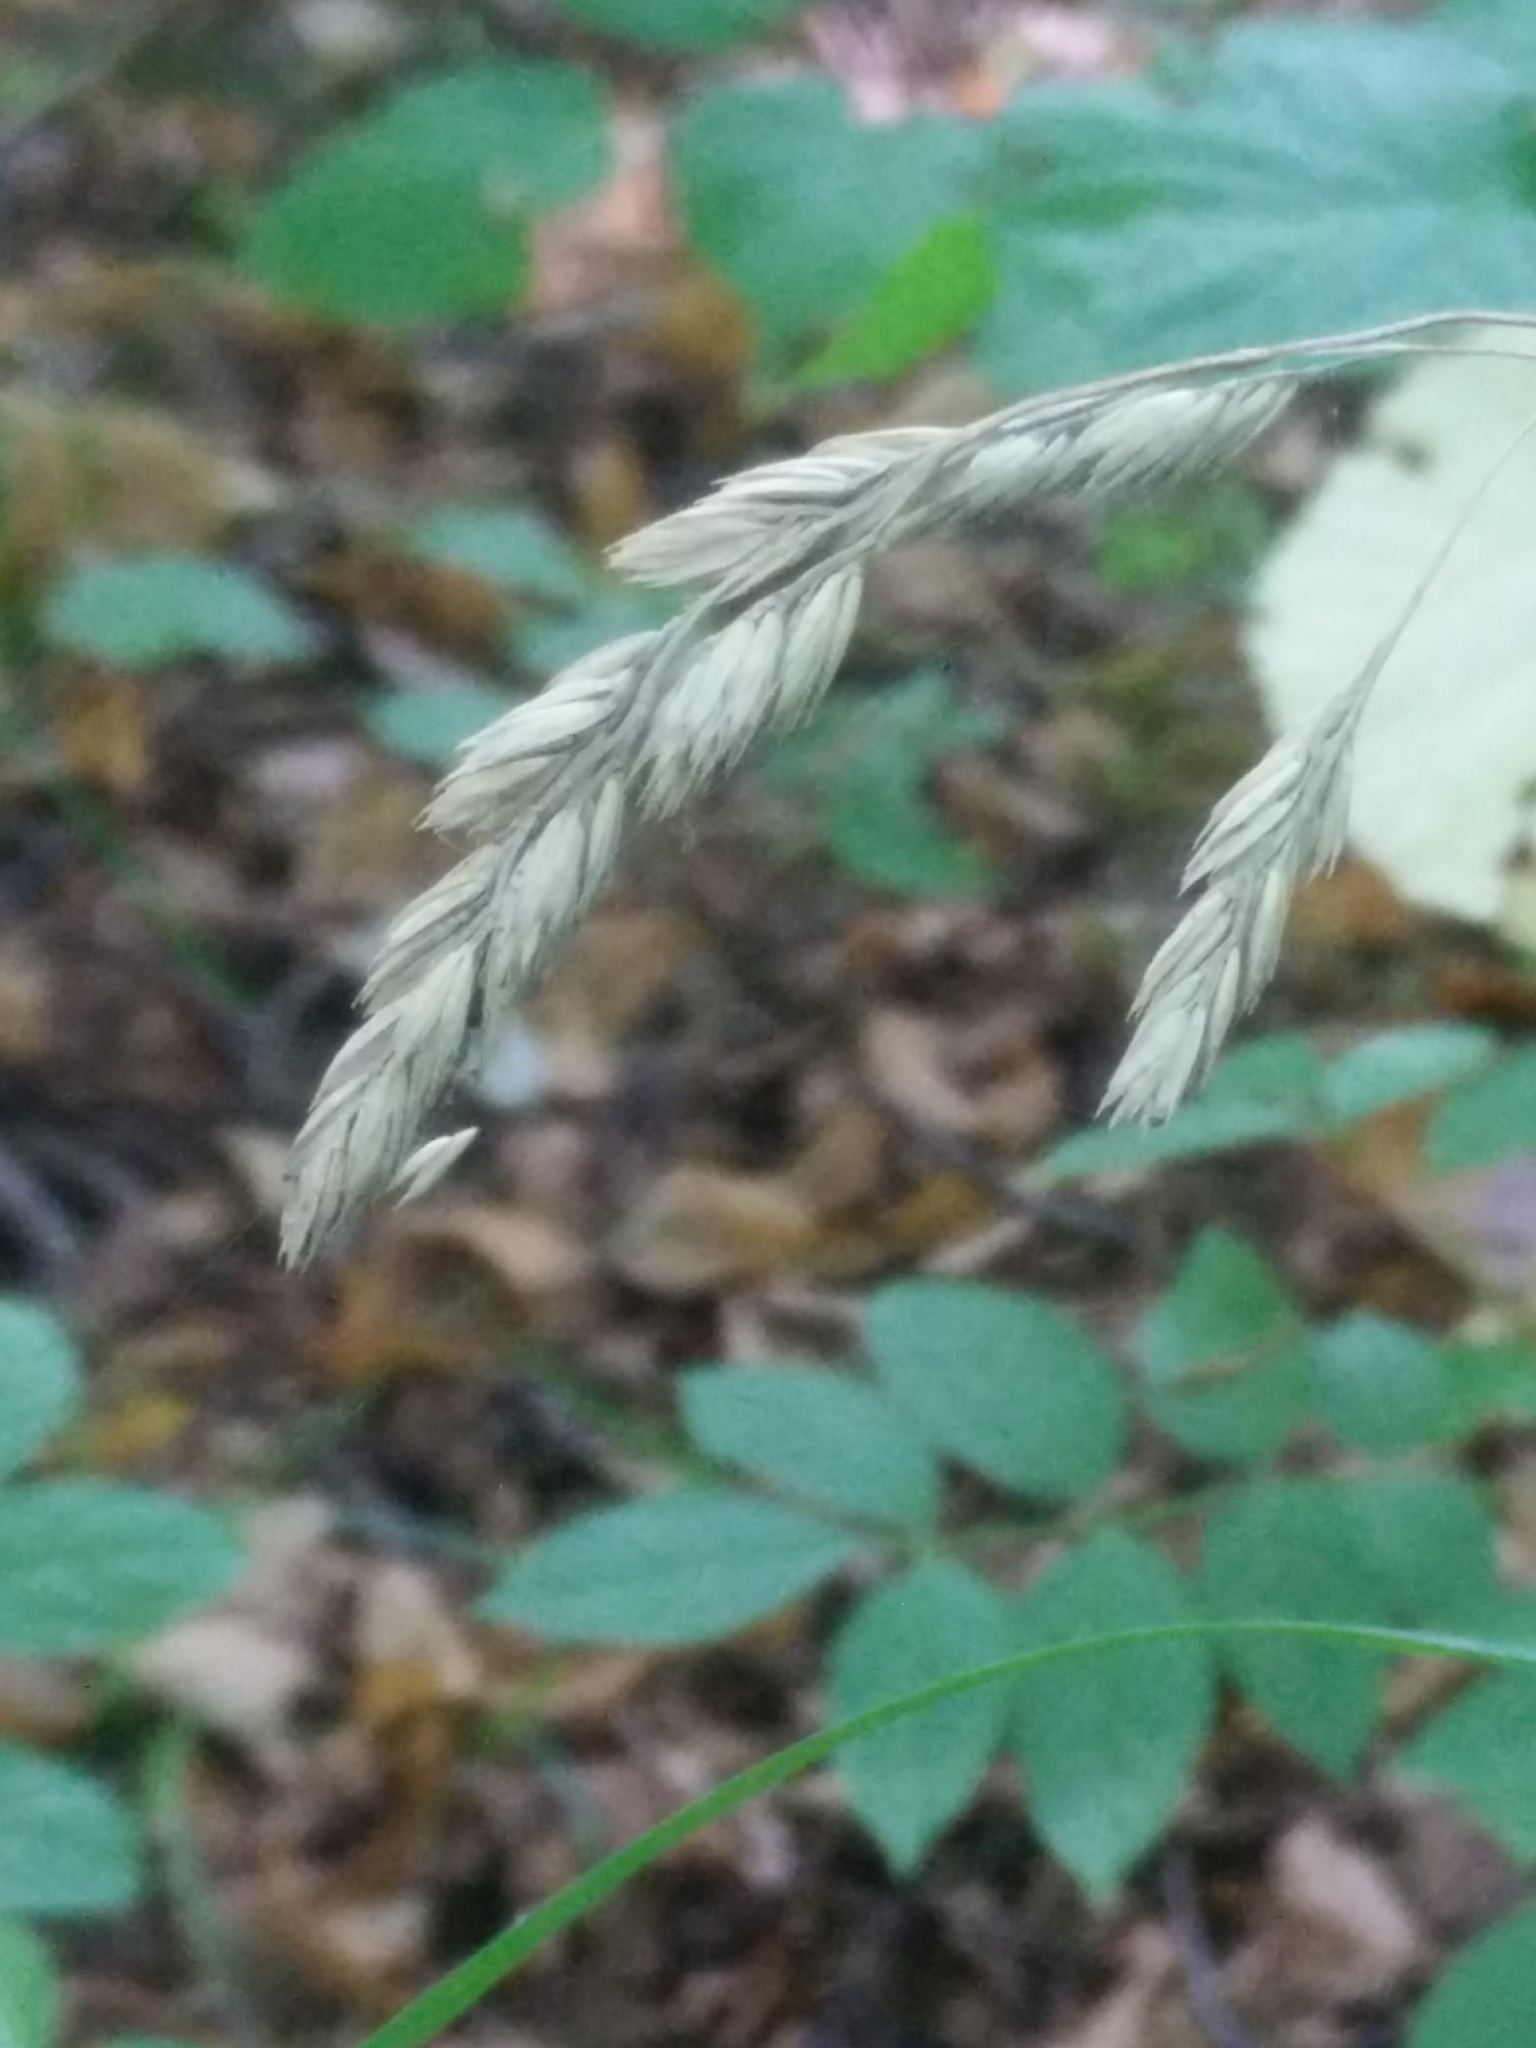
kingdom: Plantae
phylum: Tracheophyta
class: Liliopsida
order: Poales
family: Poaceae
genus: Dactylis
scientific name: Dactylis glomerata
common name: Orchardgrass
